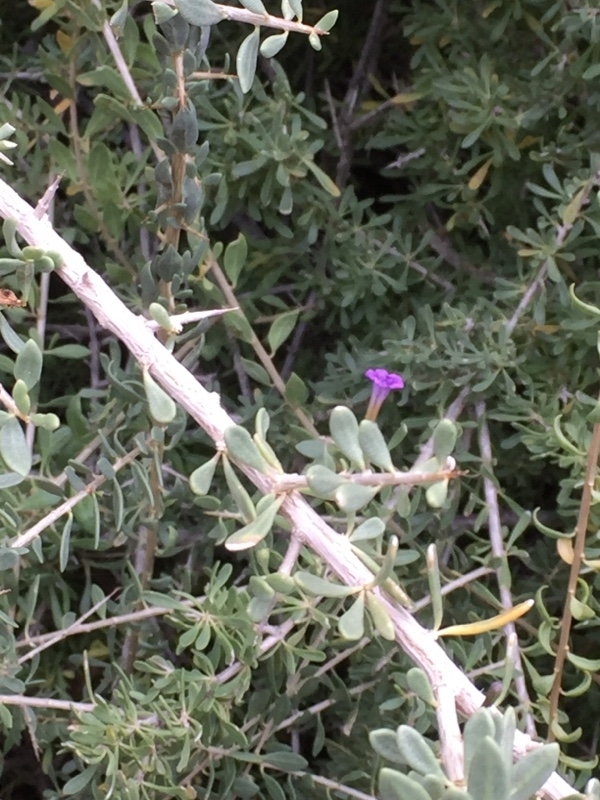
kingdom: Plantae
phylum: Tracheophyta
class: Magnoliopsida
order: Solanales
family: Solanaceae
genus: Lycium
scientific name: Lycium intricatum
